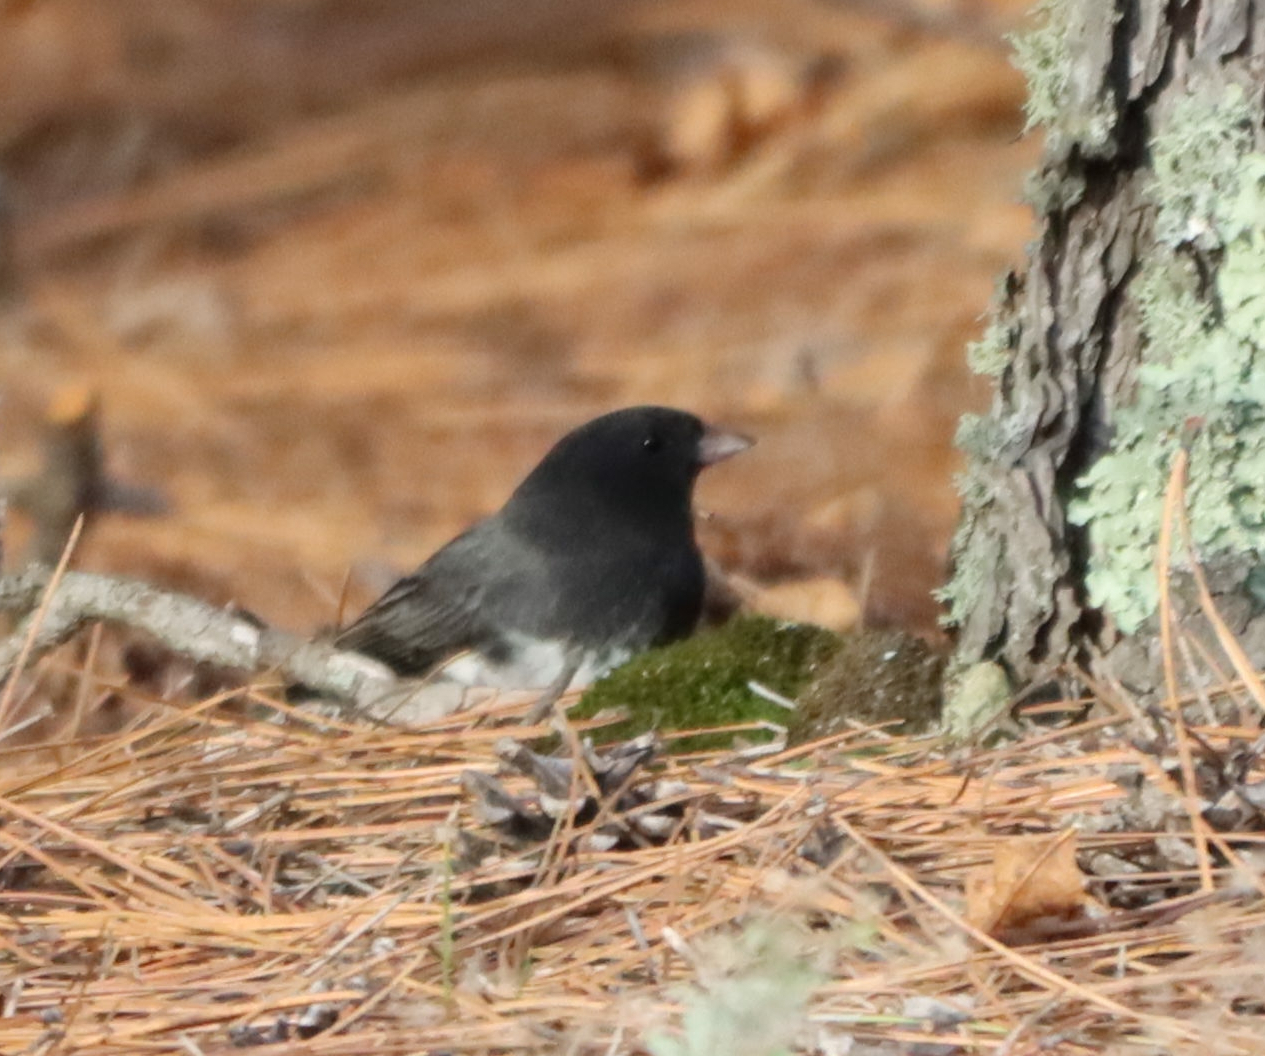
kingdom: Animalia
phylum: Chordata
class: Aves
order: Passeriformes
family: Passerellidae
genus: Junco
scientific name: Junco hyemalis
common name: Dark-eyed junco
